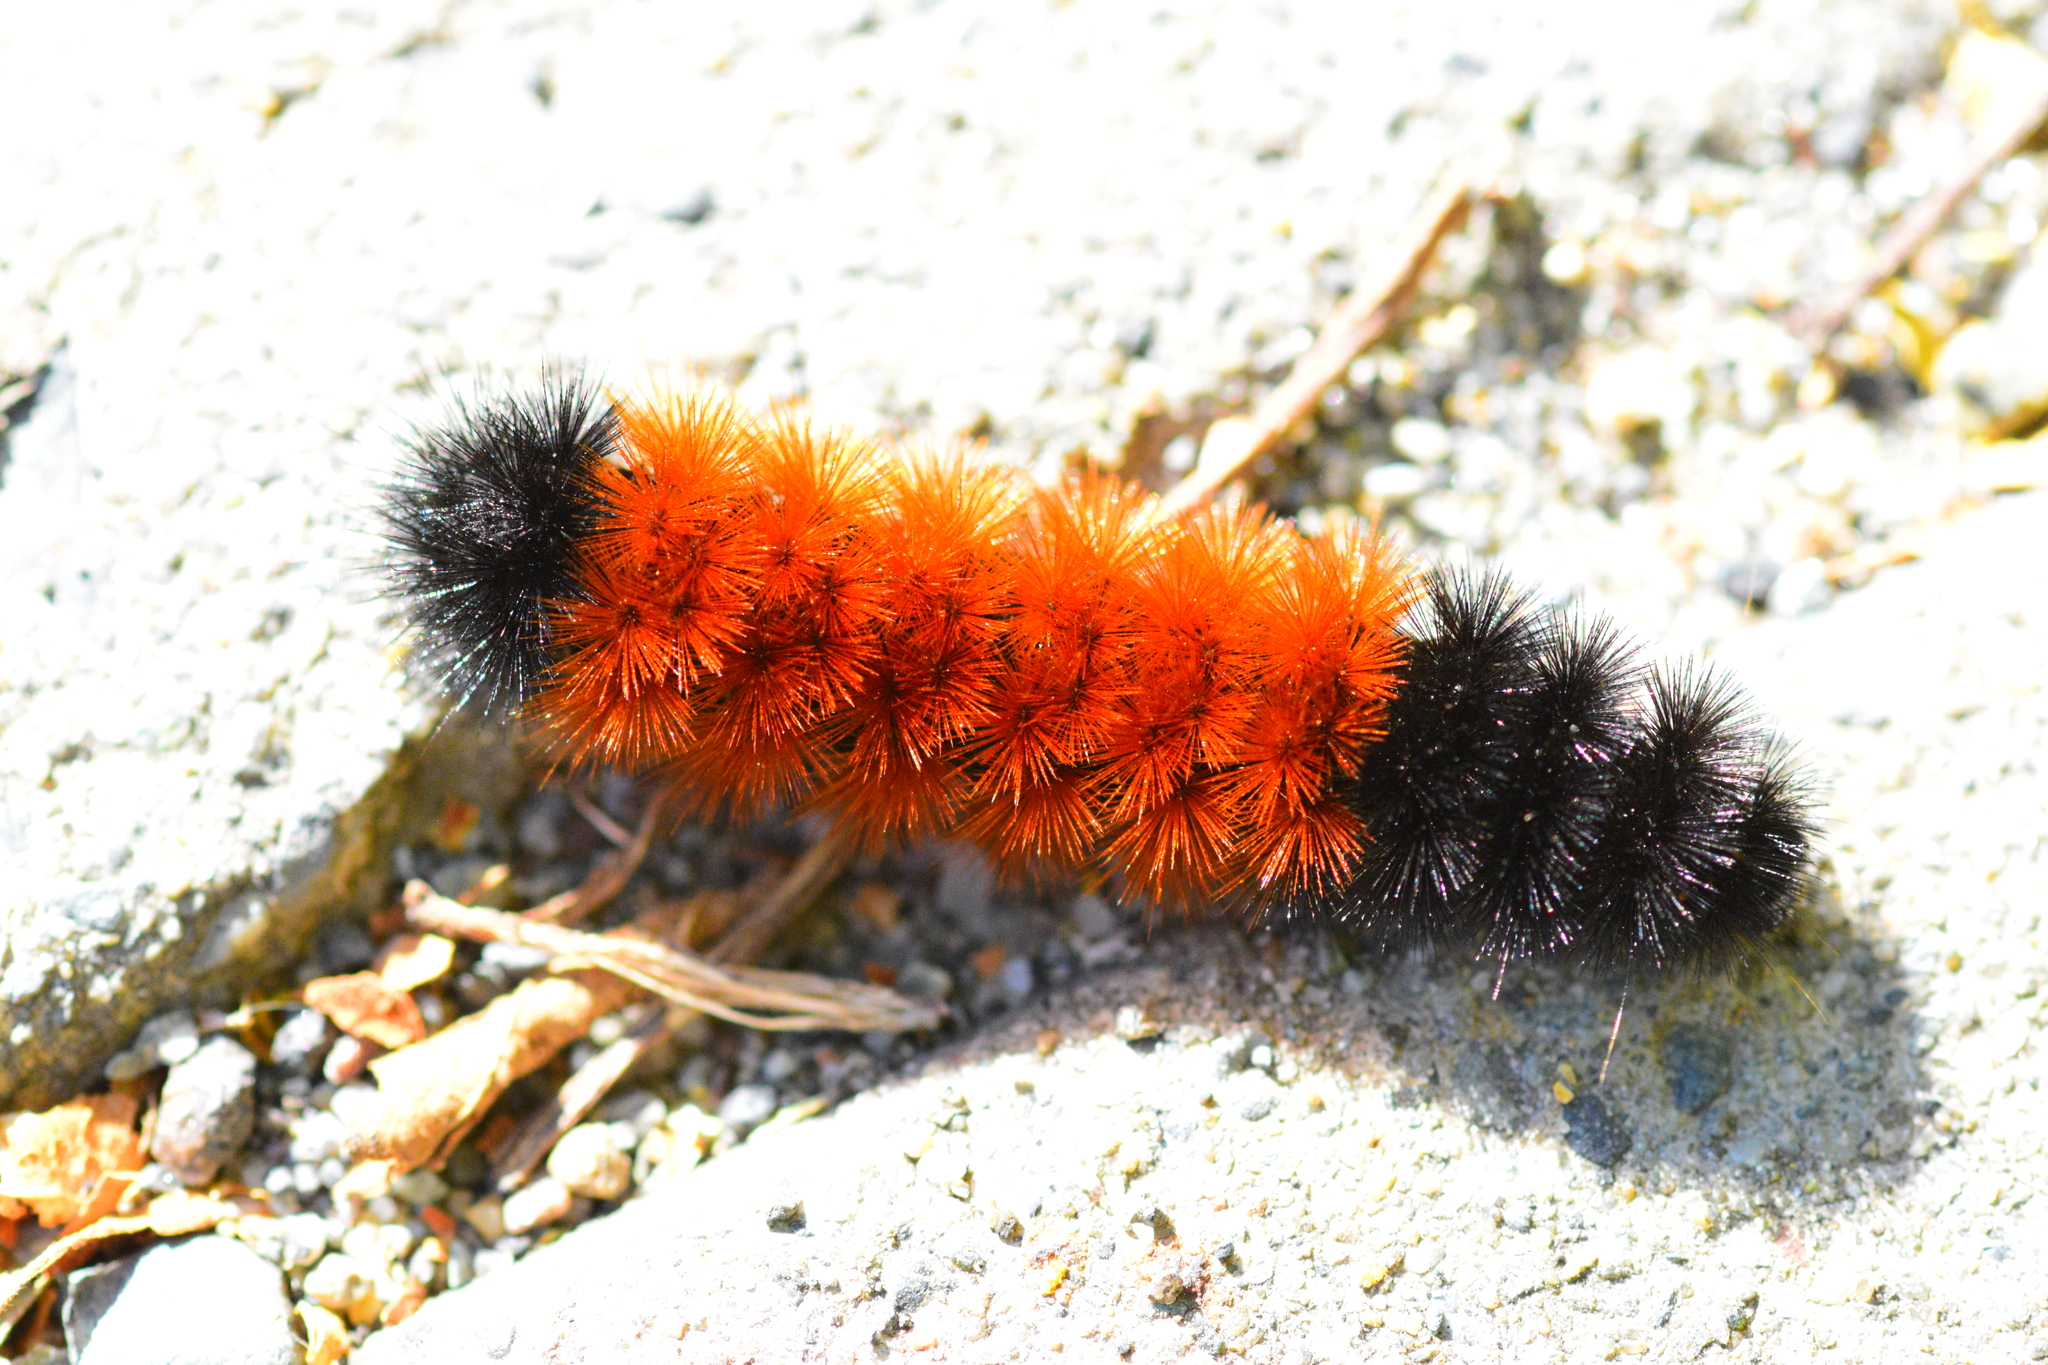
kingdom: Animalia
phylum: Arthropoda
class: Insecta
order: Lepidoptera
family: Erebidae
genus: Pyrrharctia
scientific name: Pyrrharctia isabella
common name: Isabella tiger moth
